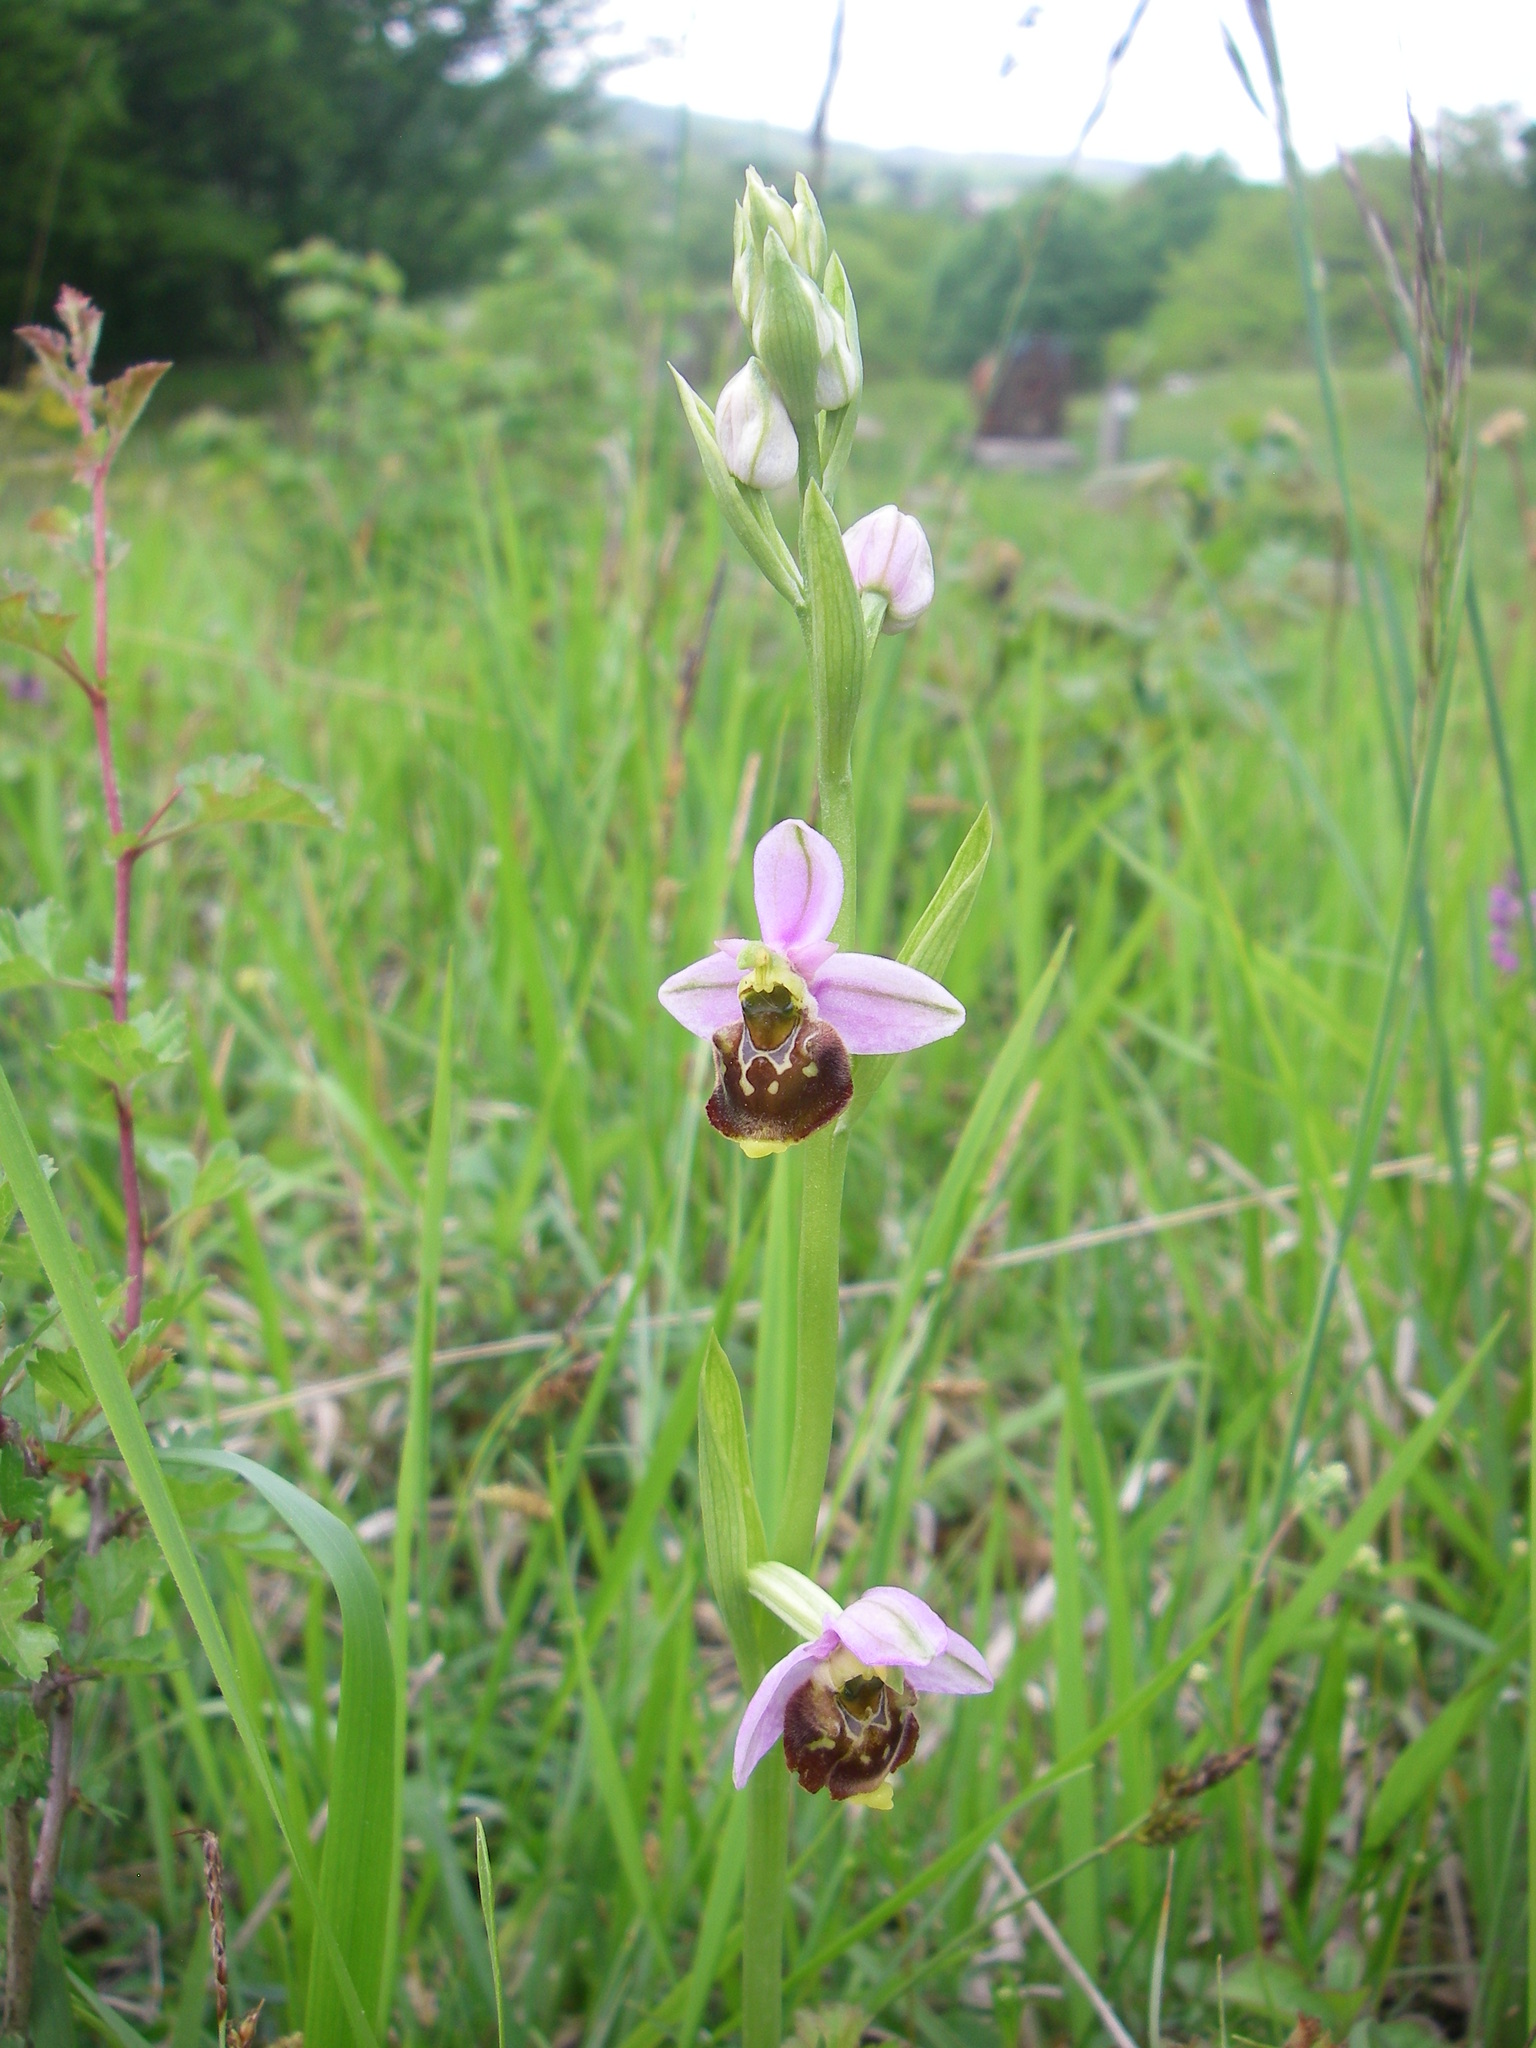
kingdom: Plantae
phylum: Tracheophyta
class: Liliopsida
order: Asparagales
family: Orchidaceae
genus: Ophrys
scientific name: Ophrys holosericea
